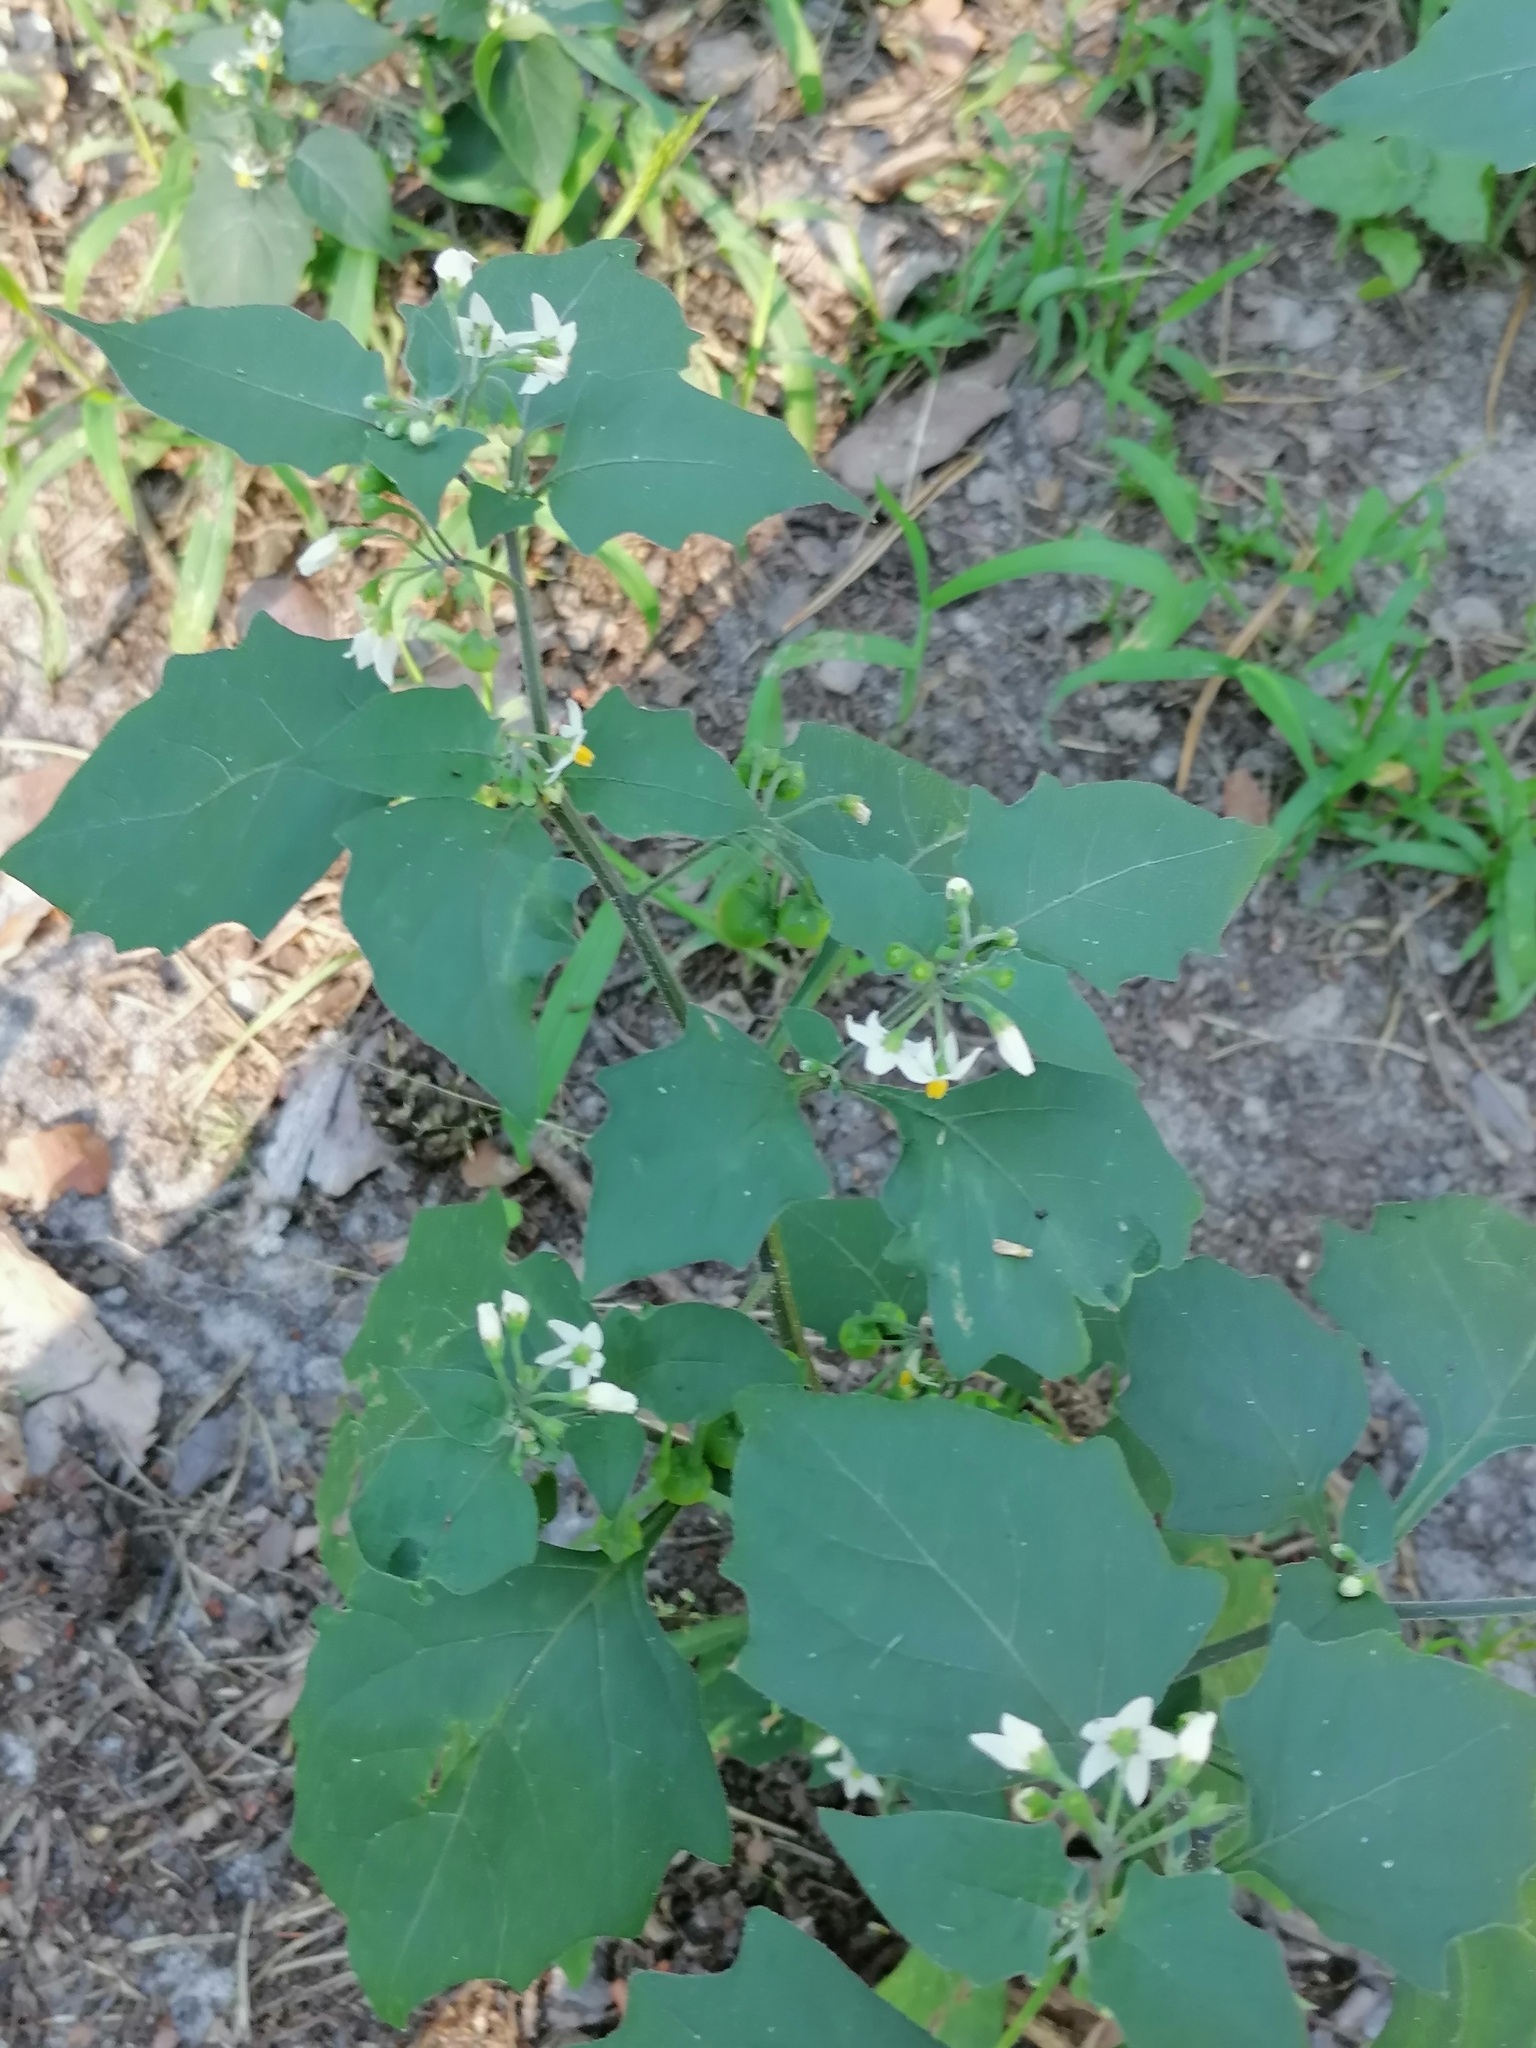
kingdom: Plantae
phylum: Tracheophyta
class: Magnoliopsida
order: Solanales
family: Solanaceae
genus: Solanum
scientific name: Solanum nigrum
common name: Black nightshade
